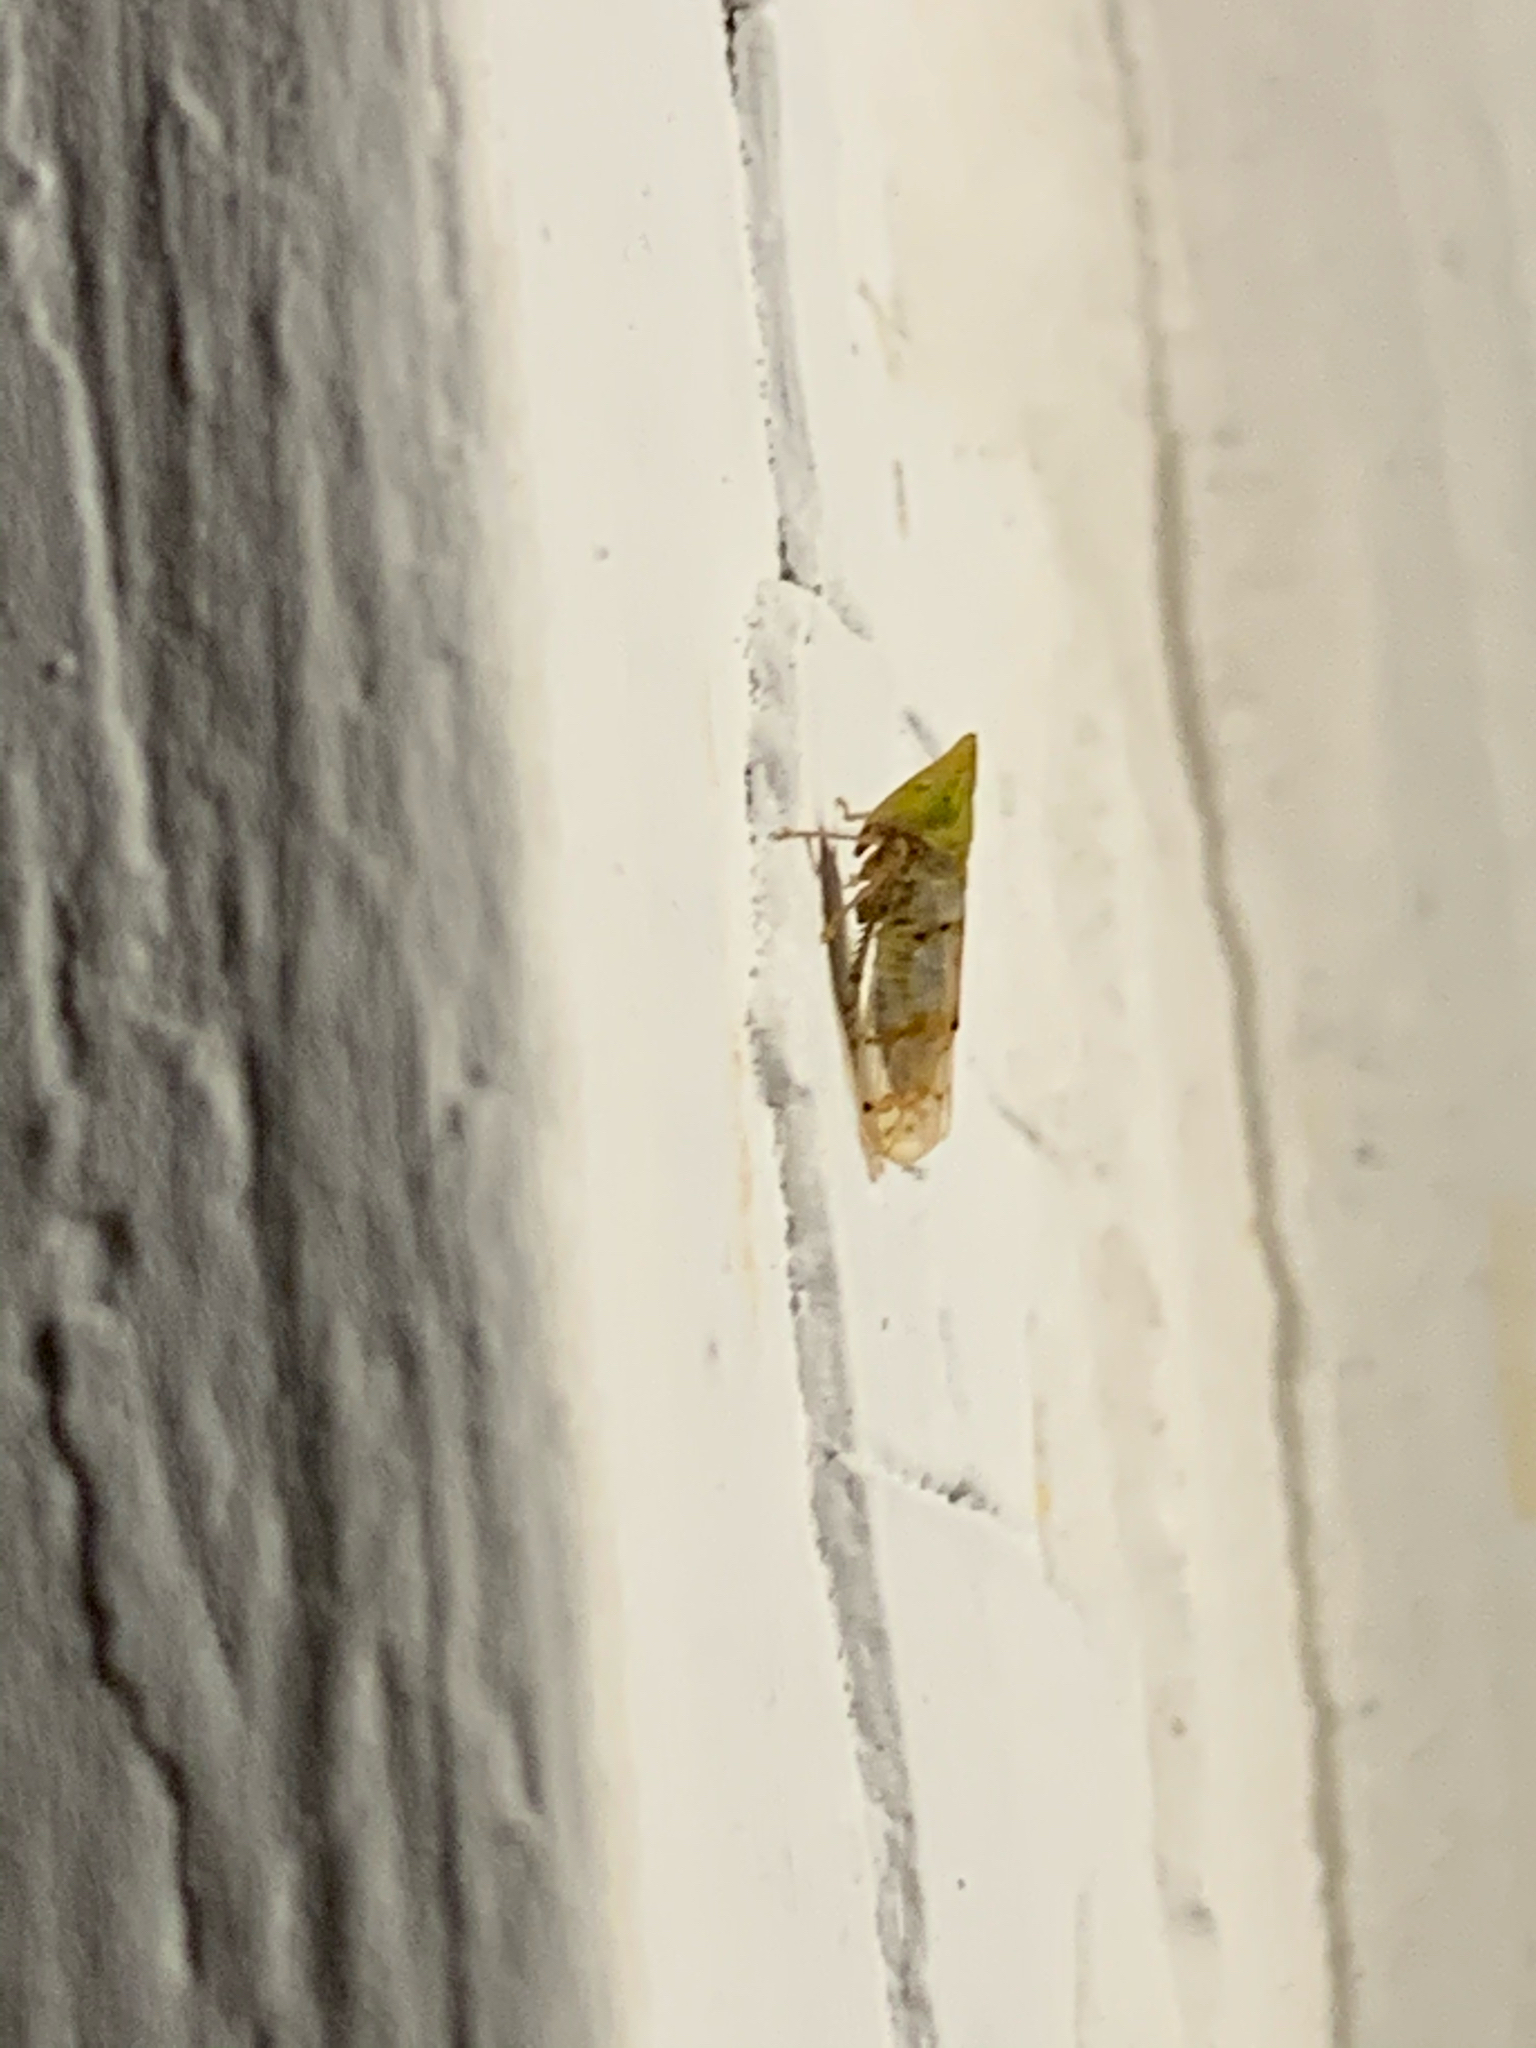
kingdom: Animalia
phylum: Arthropoda
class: Insecta
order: Hemiptera
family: Cicadellidae
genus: Japananus
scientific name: Japananus hyalinus
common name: The japanese maple leafhopper
